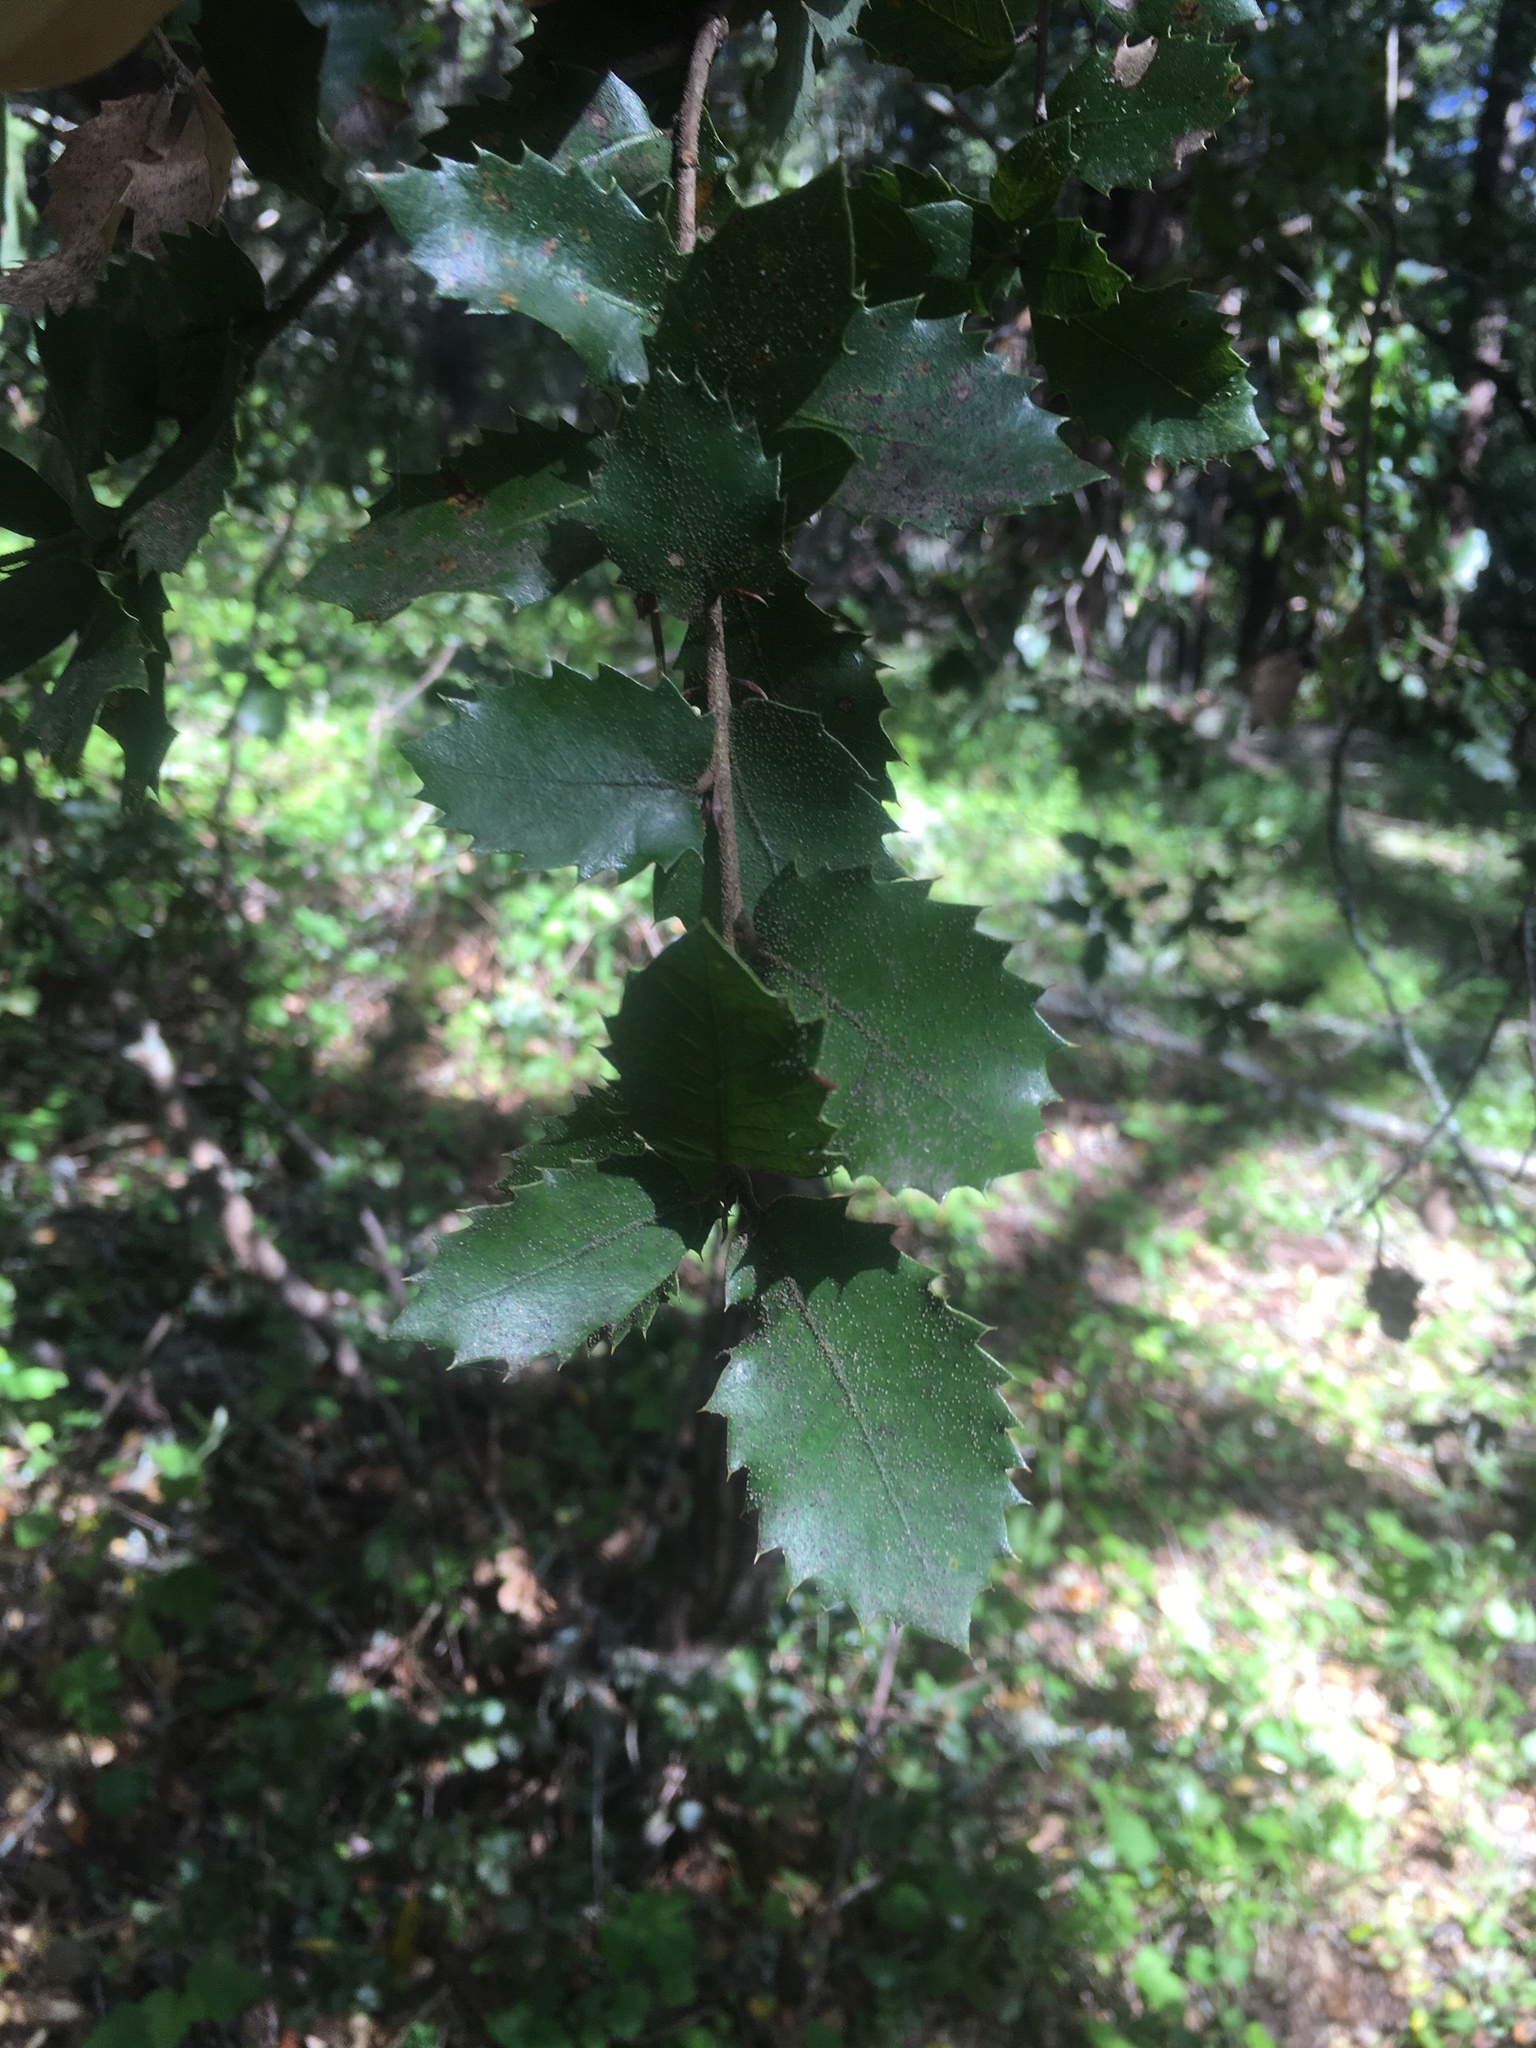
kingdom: Plantae
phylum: Tracheophyta
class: Magnoliopsida
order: Fagales
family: Fagaceae
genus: Quercus
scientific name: Quercus chrysolepis
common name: Canyon live oak
